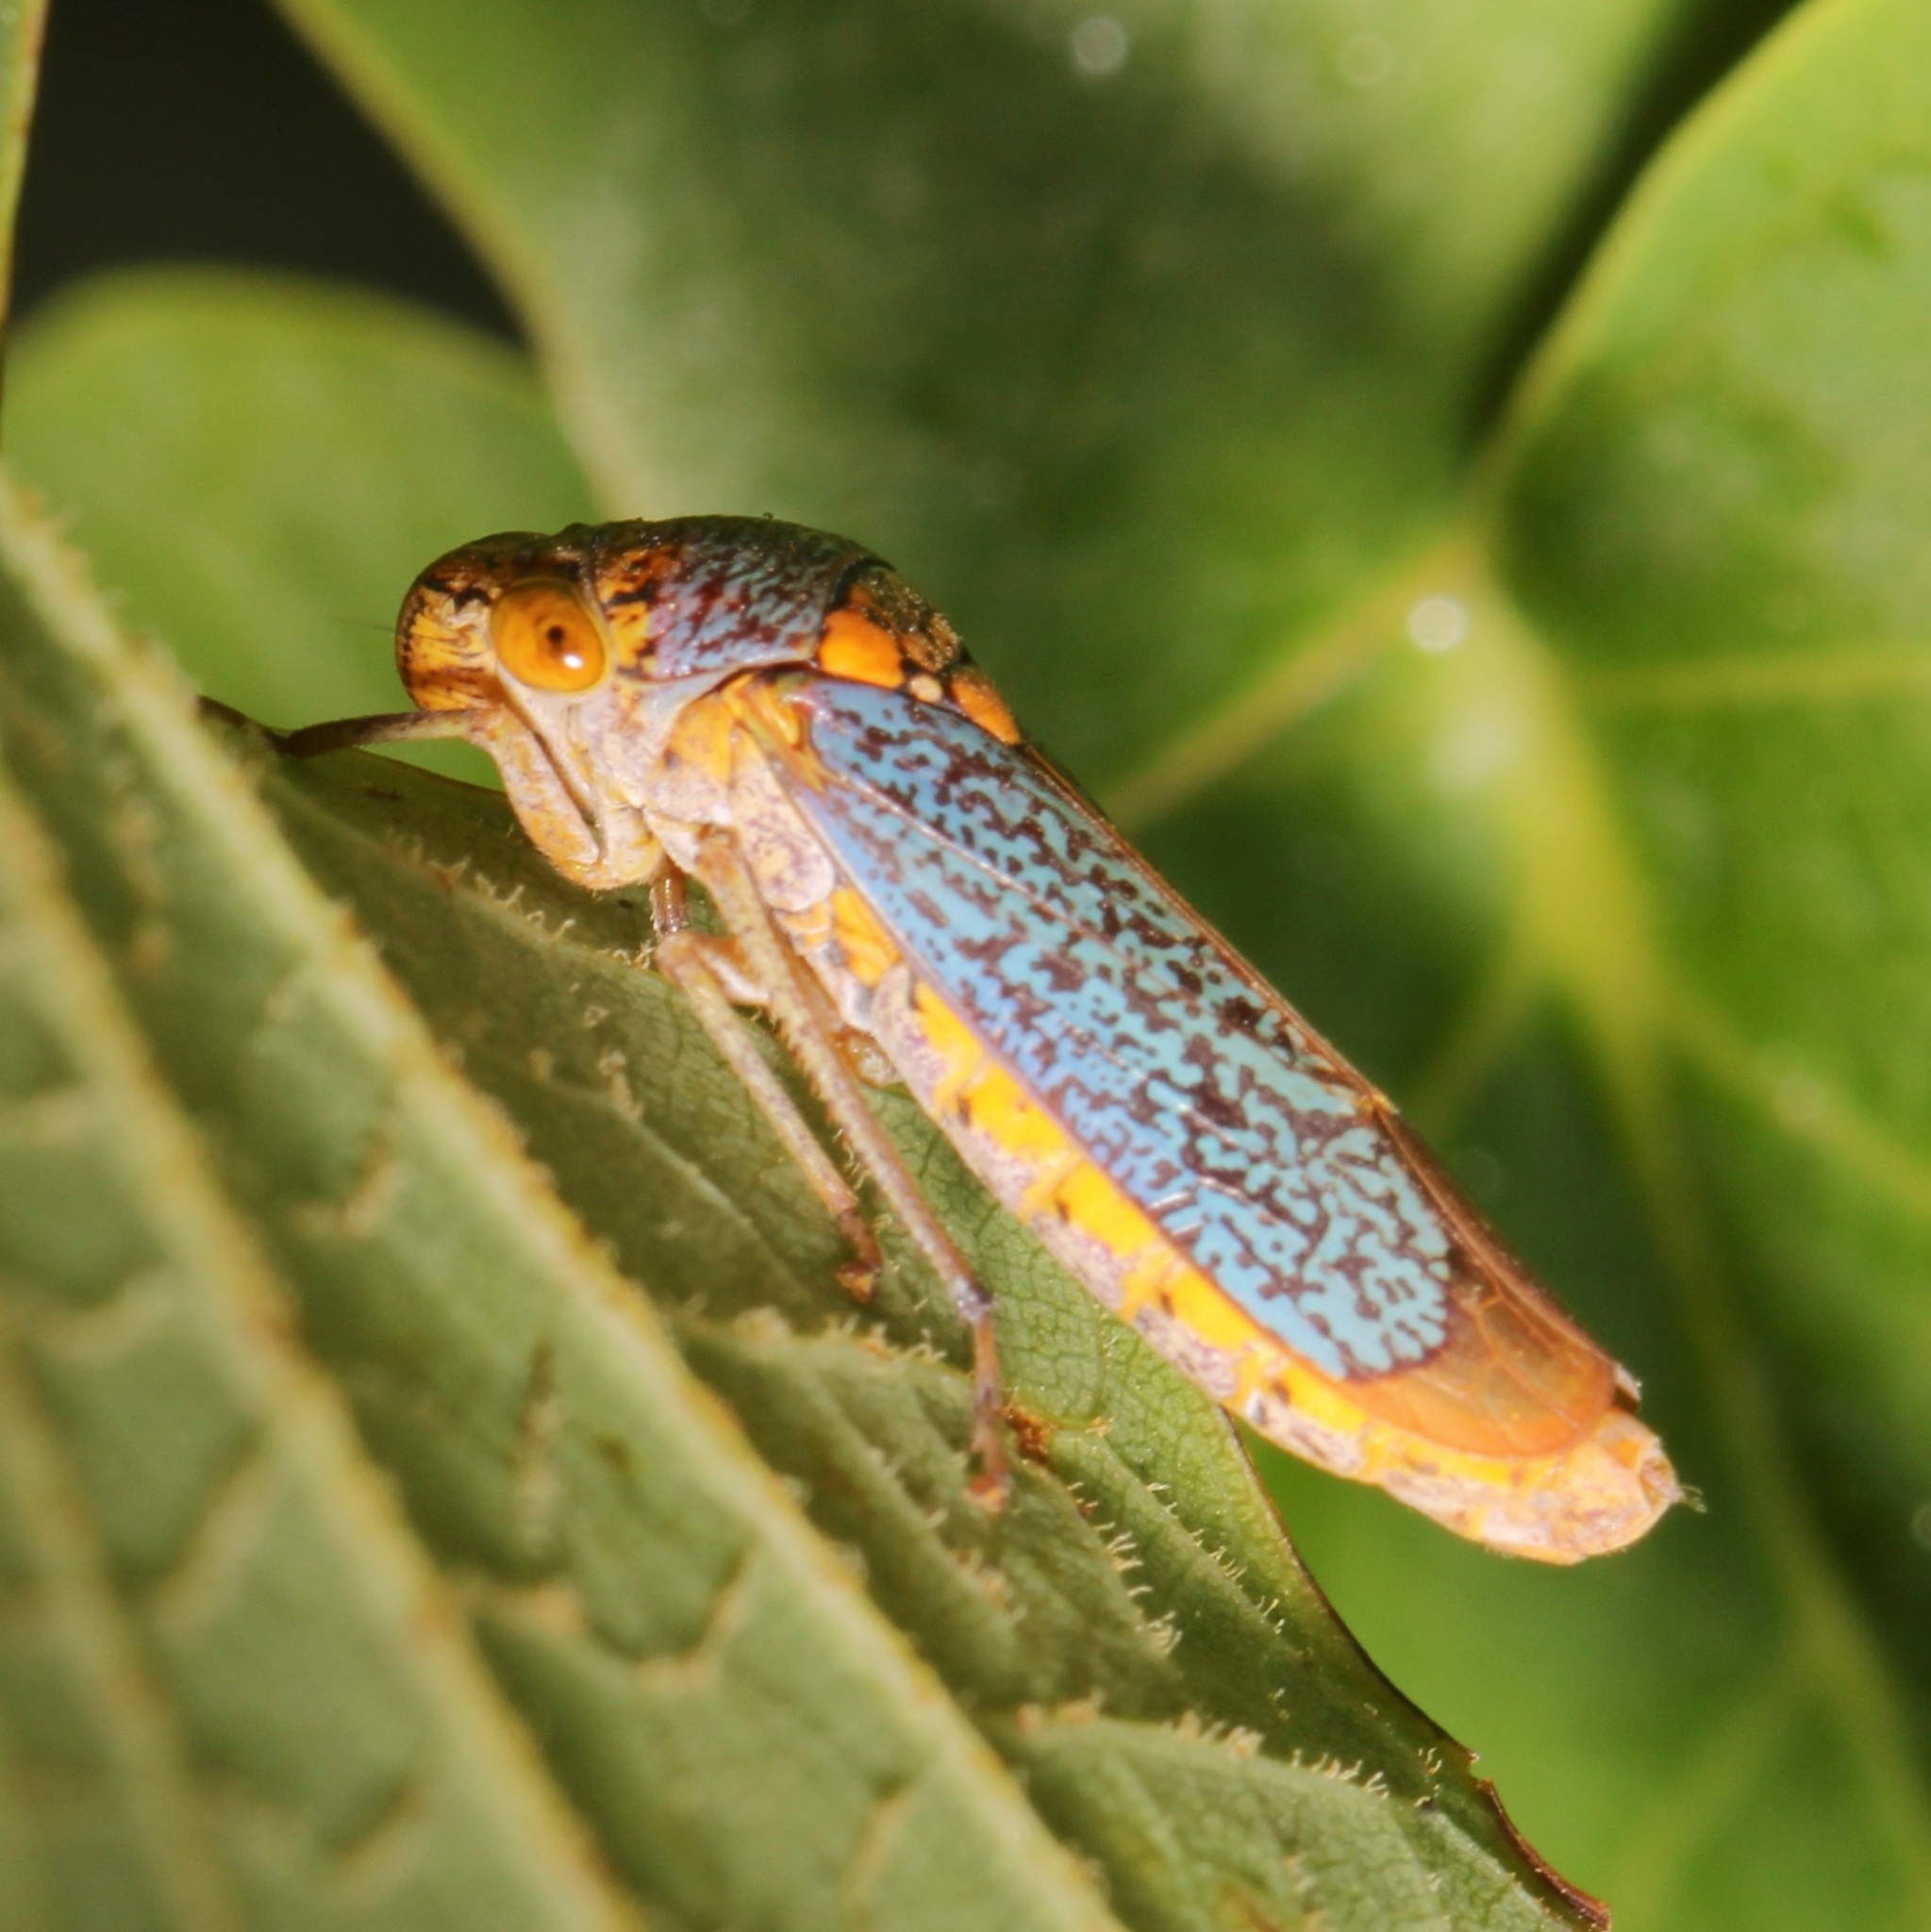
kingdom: Animalia
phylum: Arthropoda
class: Insecta
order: Hemiptera
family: Cicadellidae
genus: Oncometopia
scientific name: Oncometopia orbona
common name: Broad-headed sharpshooter
